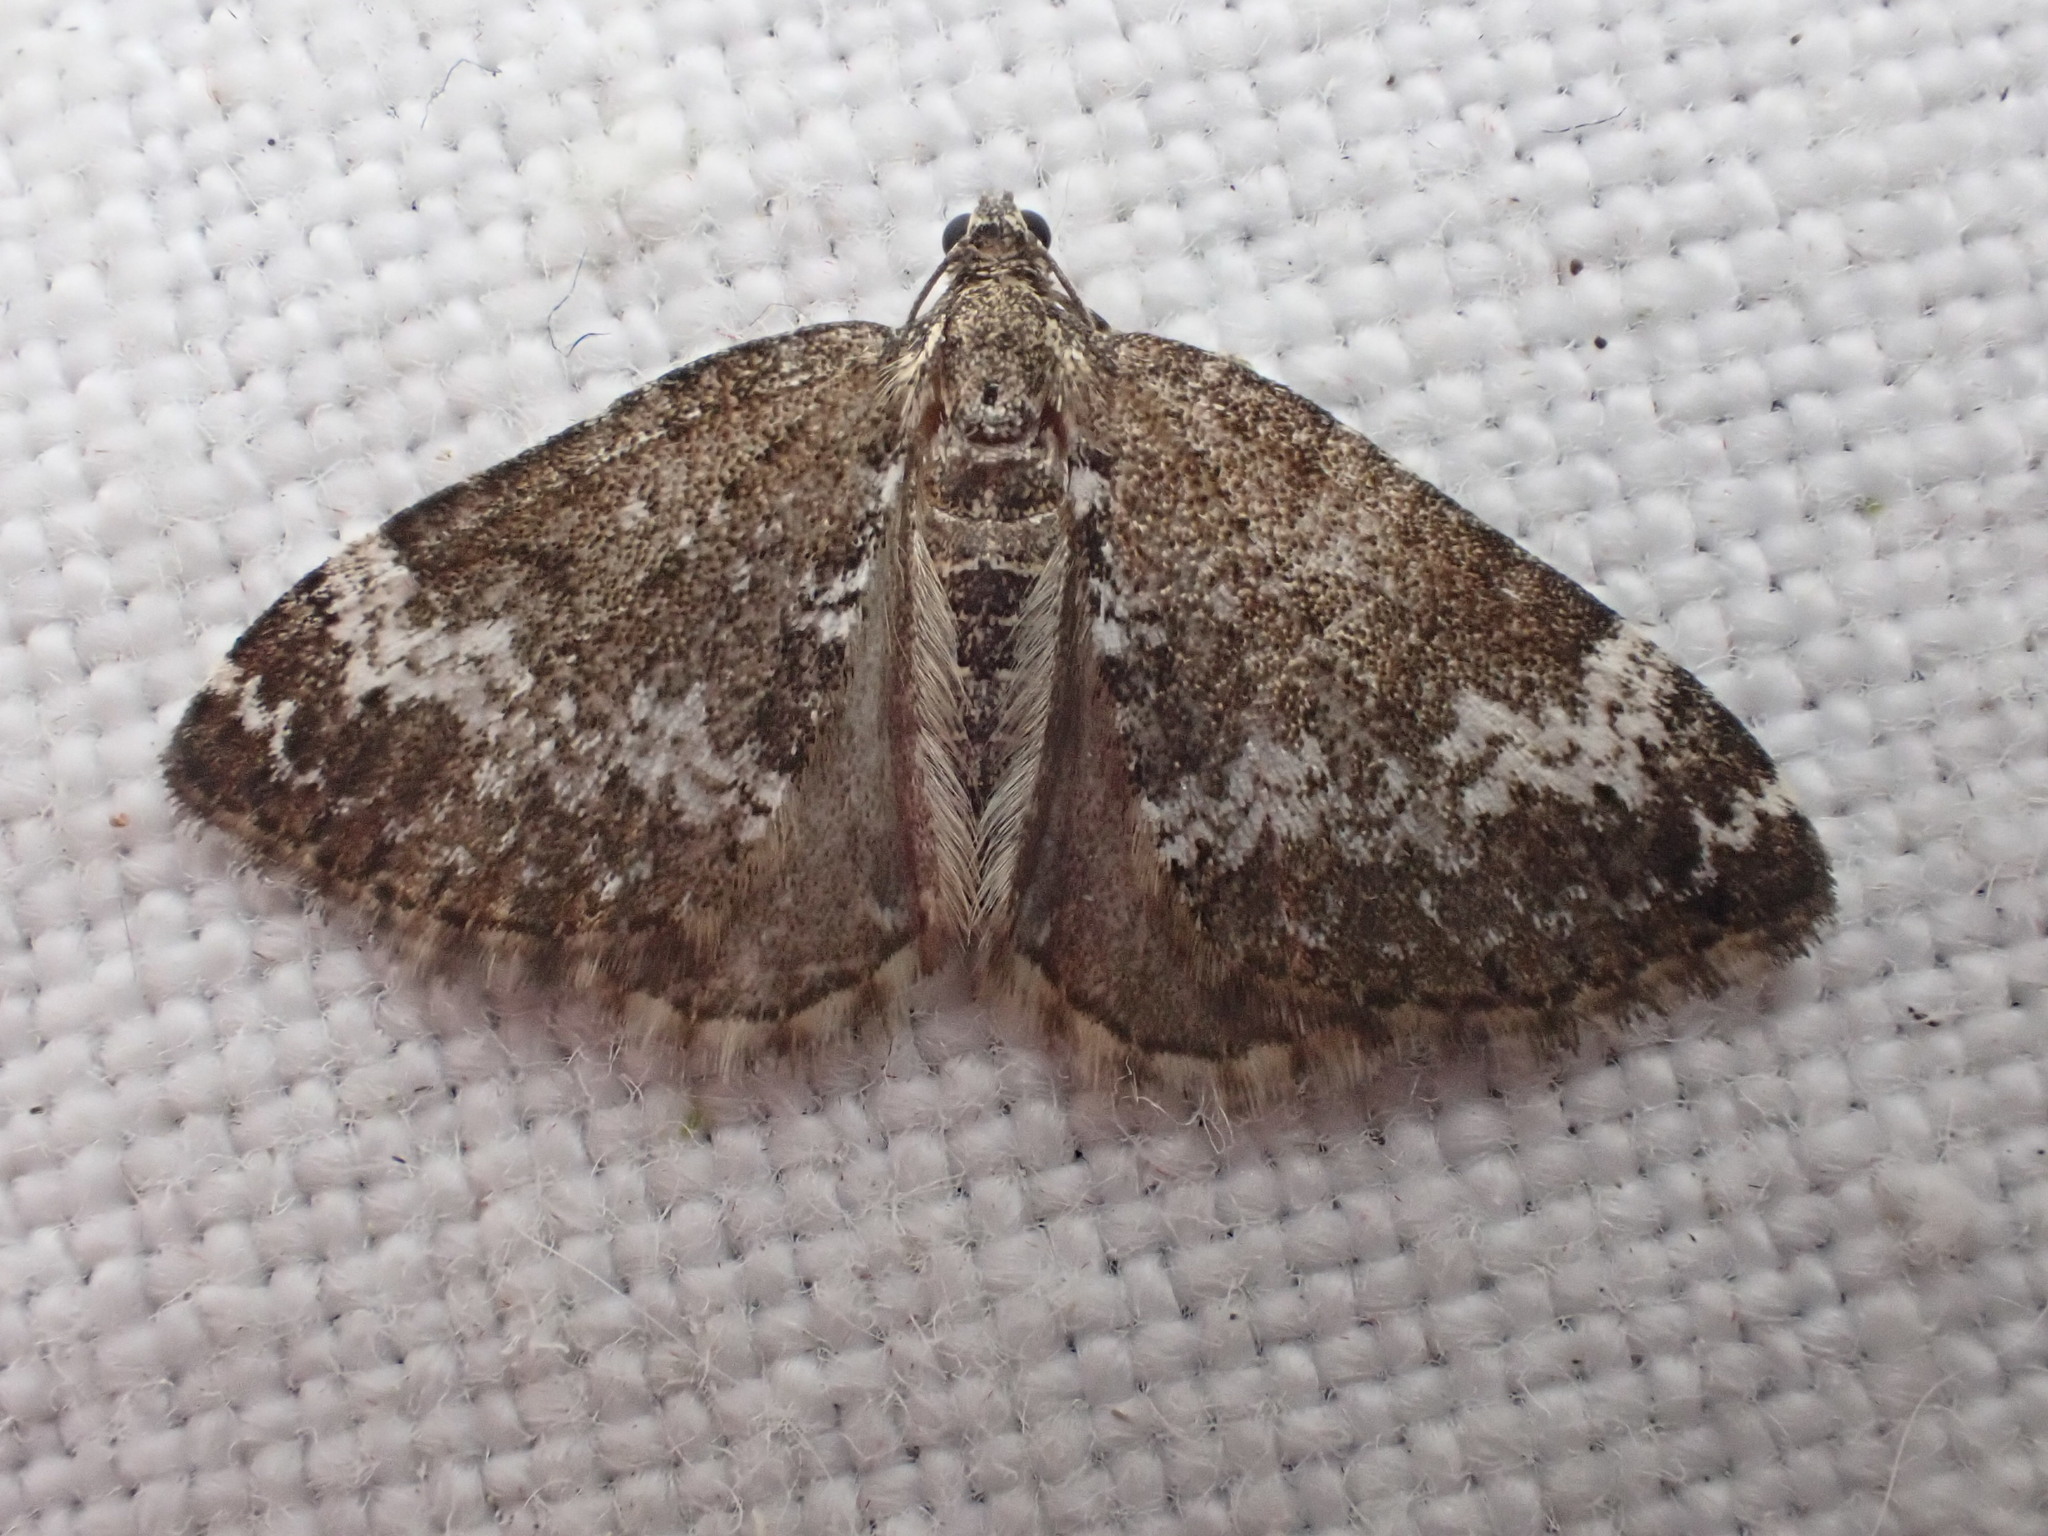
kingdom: Animalia
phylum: Arthropoda
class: Insecta
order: Lepidoptera
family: Geometridae
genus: Perizoma
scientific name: Perizoma alchemillata
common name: Small rivulet
